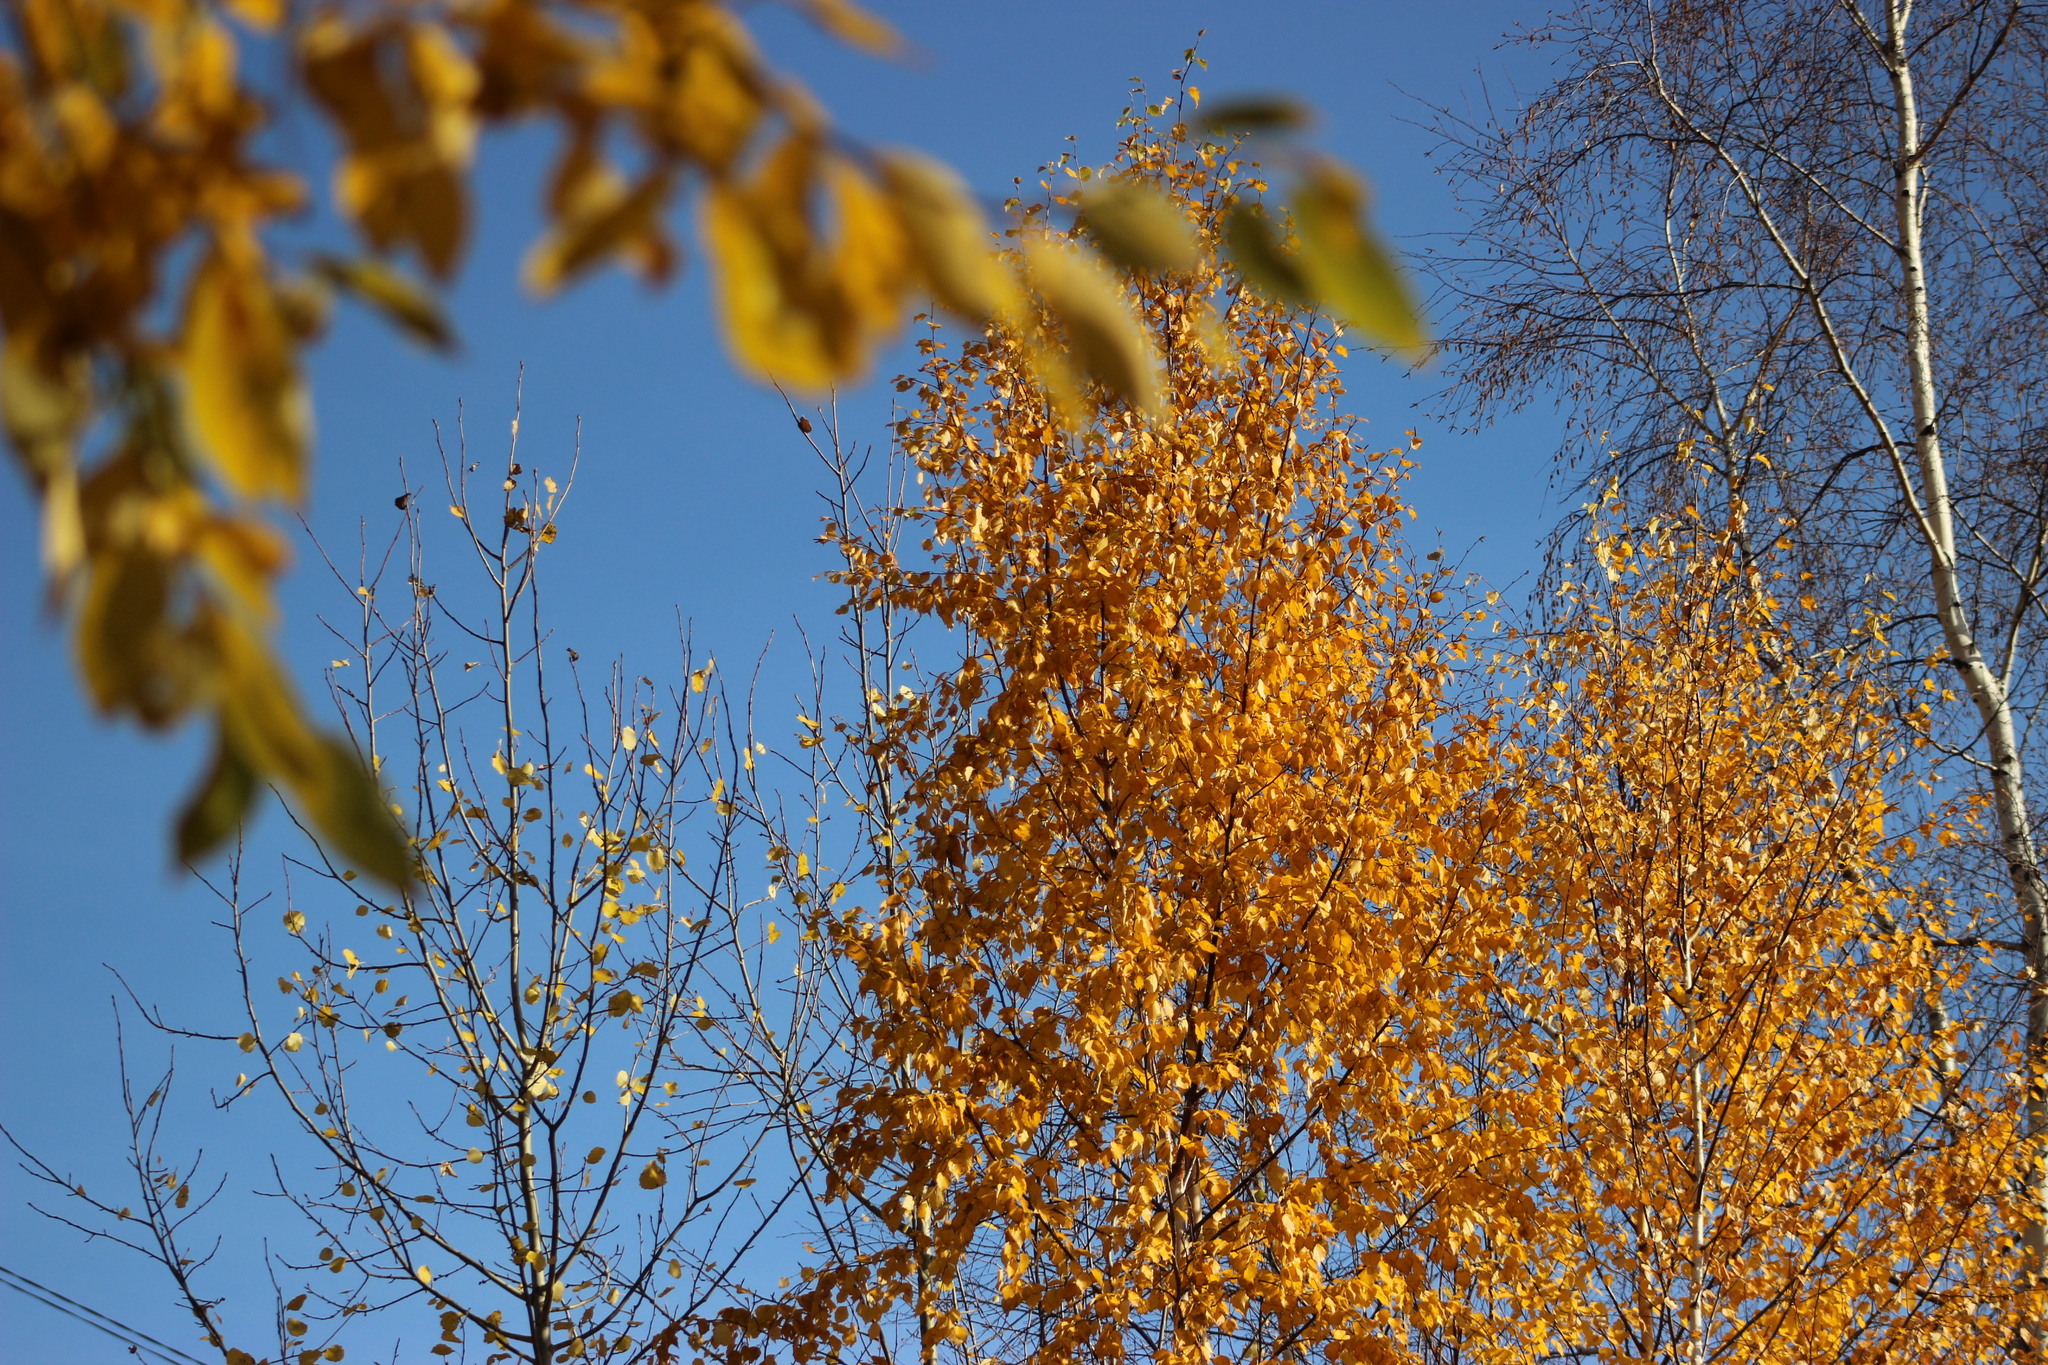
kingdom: Plantae
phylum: Tracheophyta
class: Magnoliopsida
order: Fagales
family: Betulaceae
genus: Betula
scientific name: Betula pubescens
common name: Downy birch
